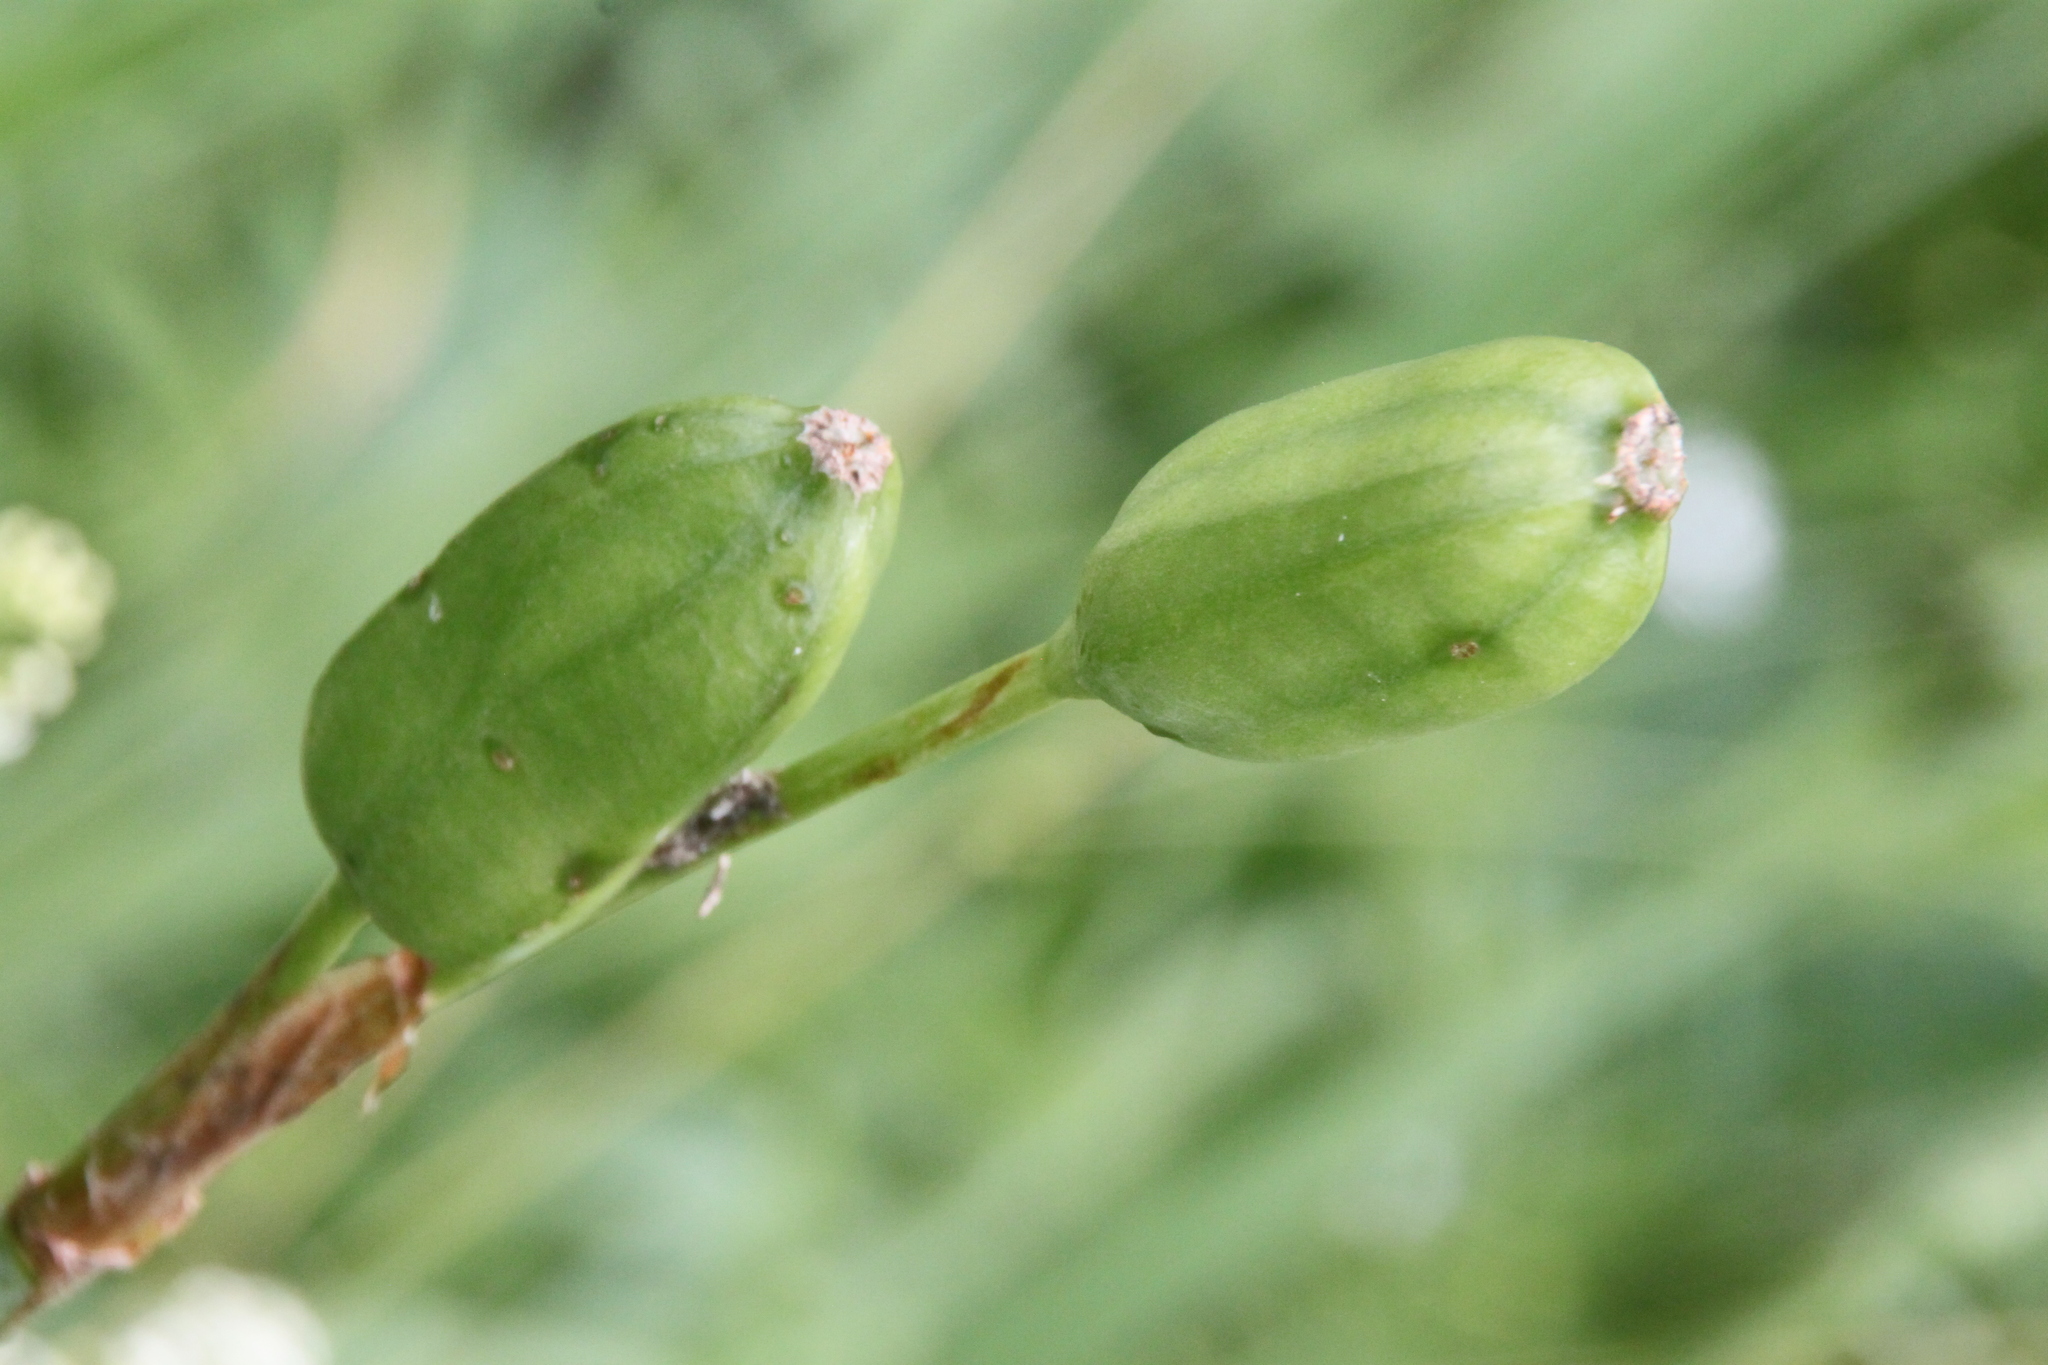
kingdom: Plantae
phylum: Tracheophyta
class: Liliopsida
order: Asparagales
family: Iridaceae
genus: Iris
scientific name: Iris sibirica
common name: Siberian iris
